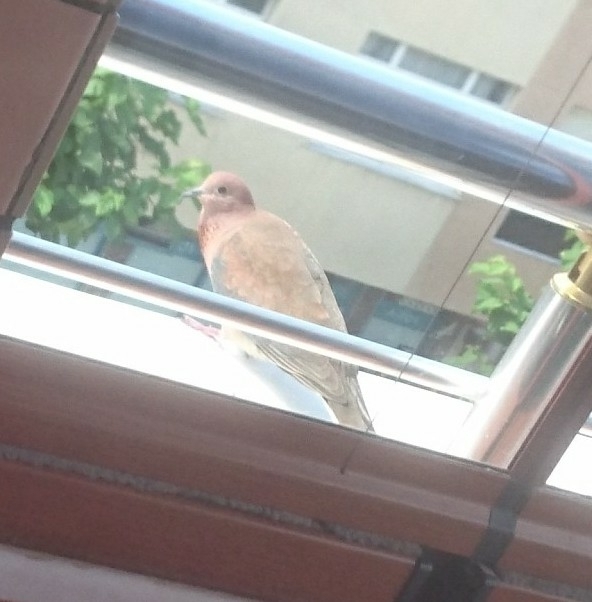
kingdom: Animalia
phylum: Chordata
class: Aves
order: Columbiformes
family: Columbidae
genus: Spilopelia
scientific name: Spilopelia senegalensis
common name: Laughing dove
